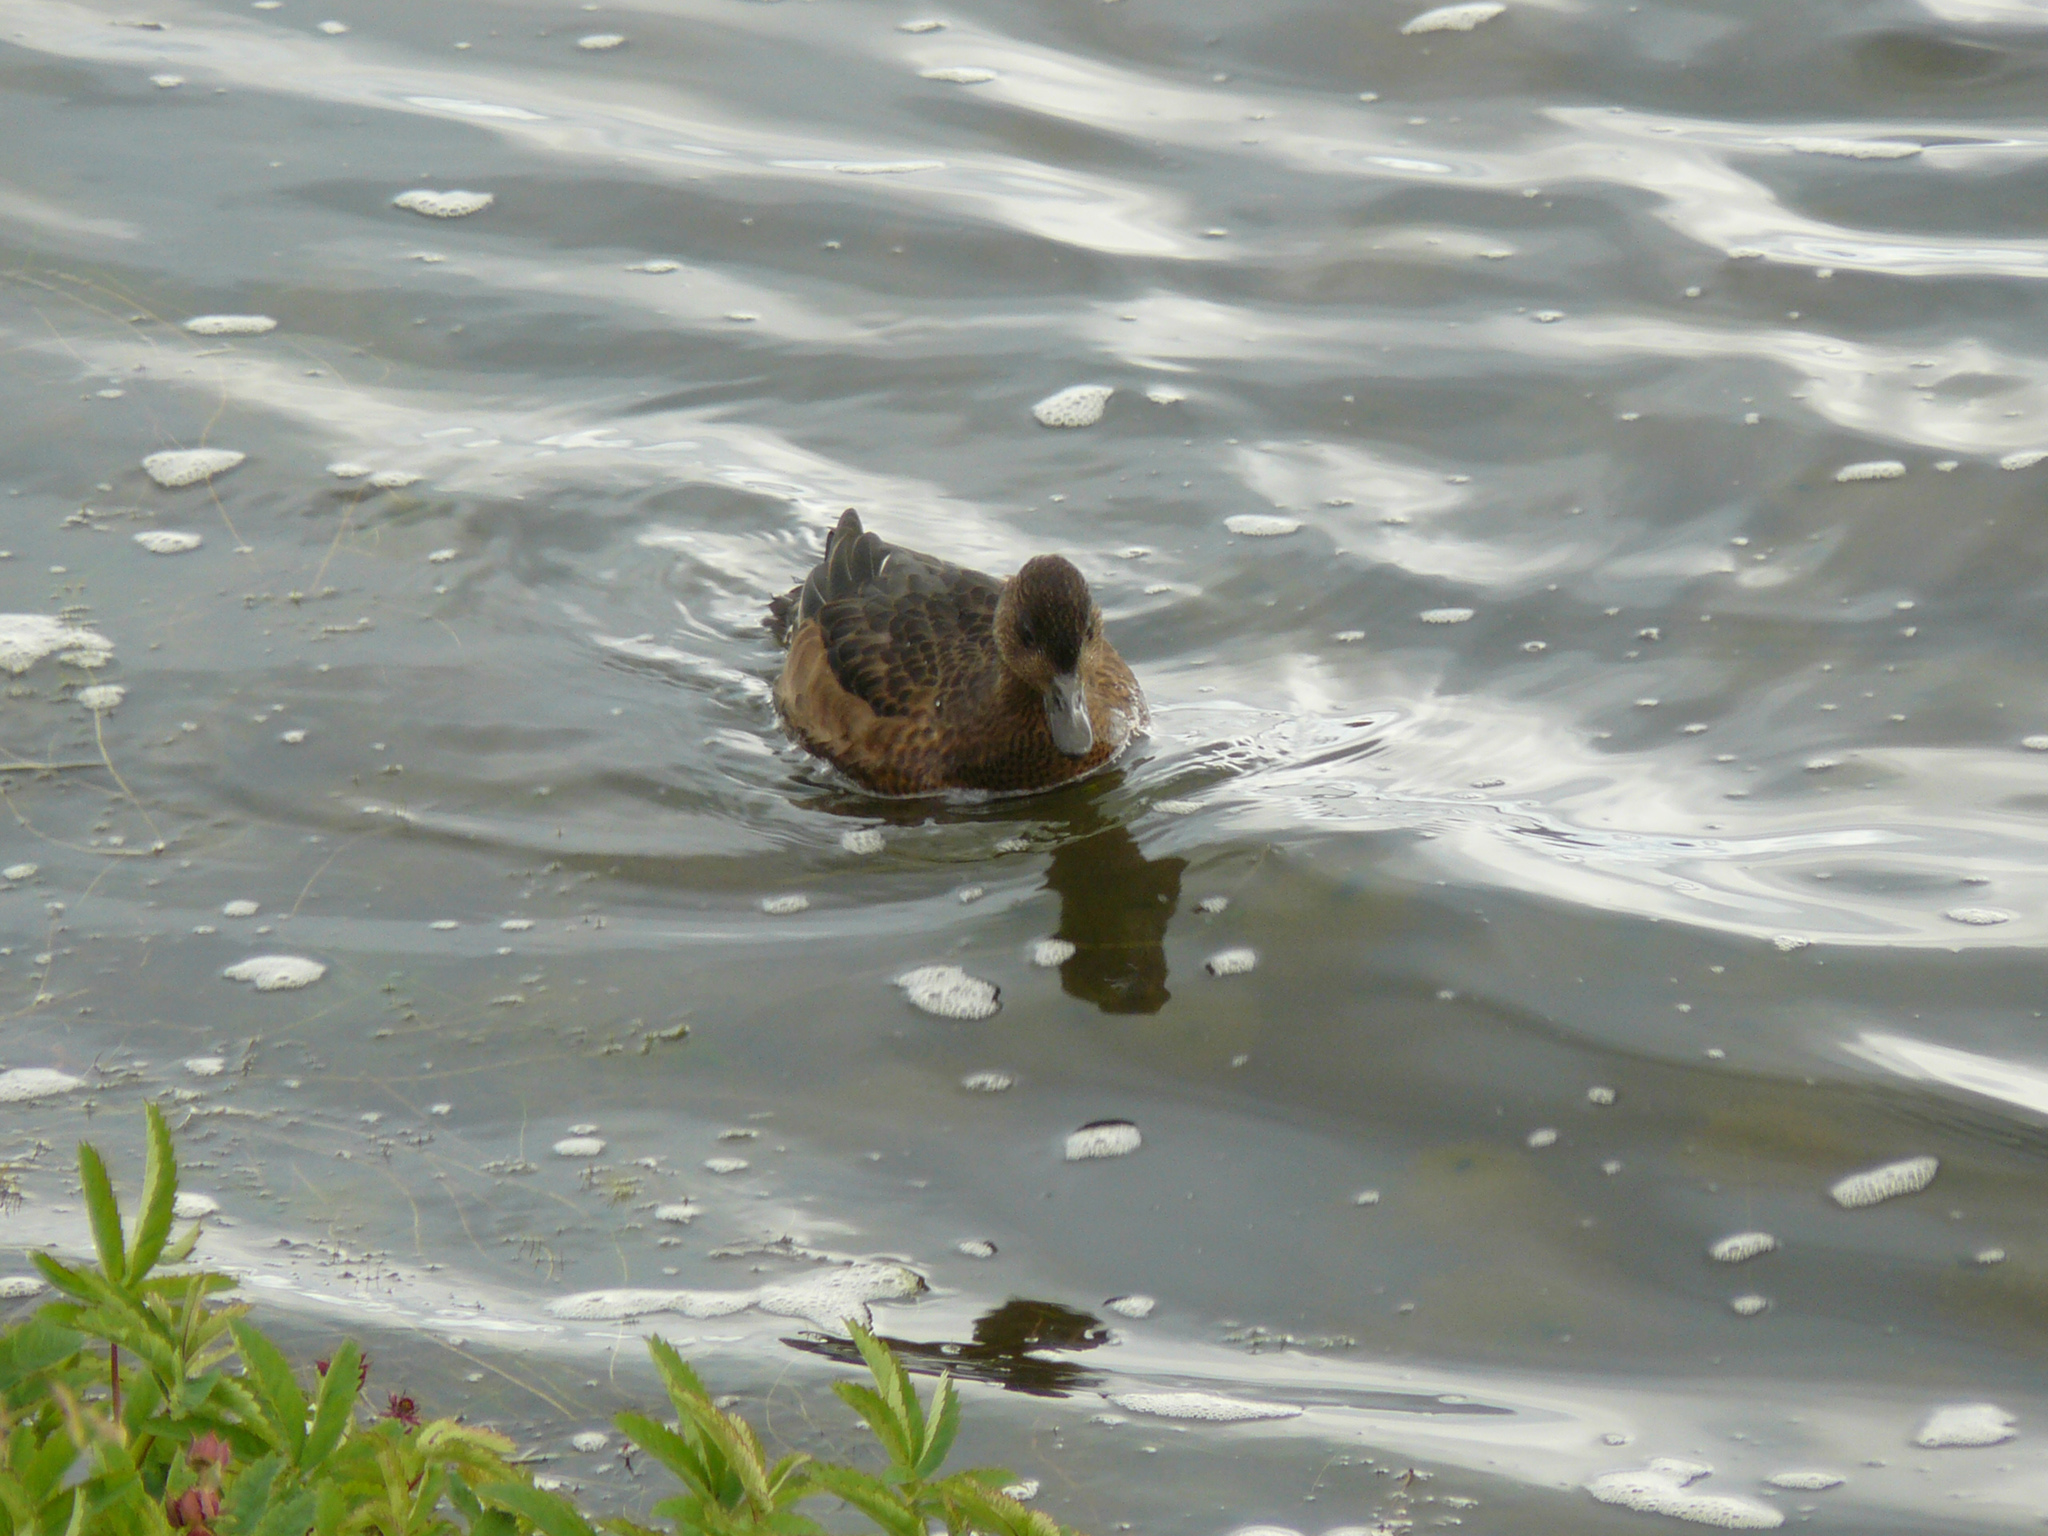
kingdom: Animalia
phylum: Chordata
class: Aves
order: Anseriformes
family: Anatidae
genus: Mareca
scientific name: Mareca penelope
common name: Eurasian wigeon
